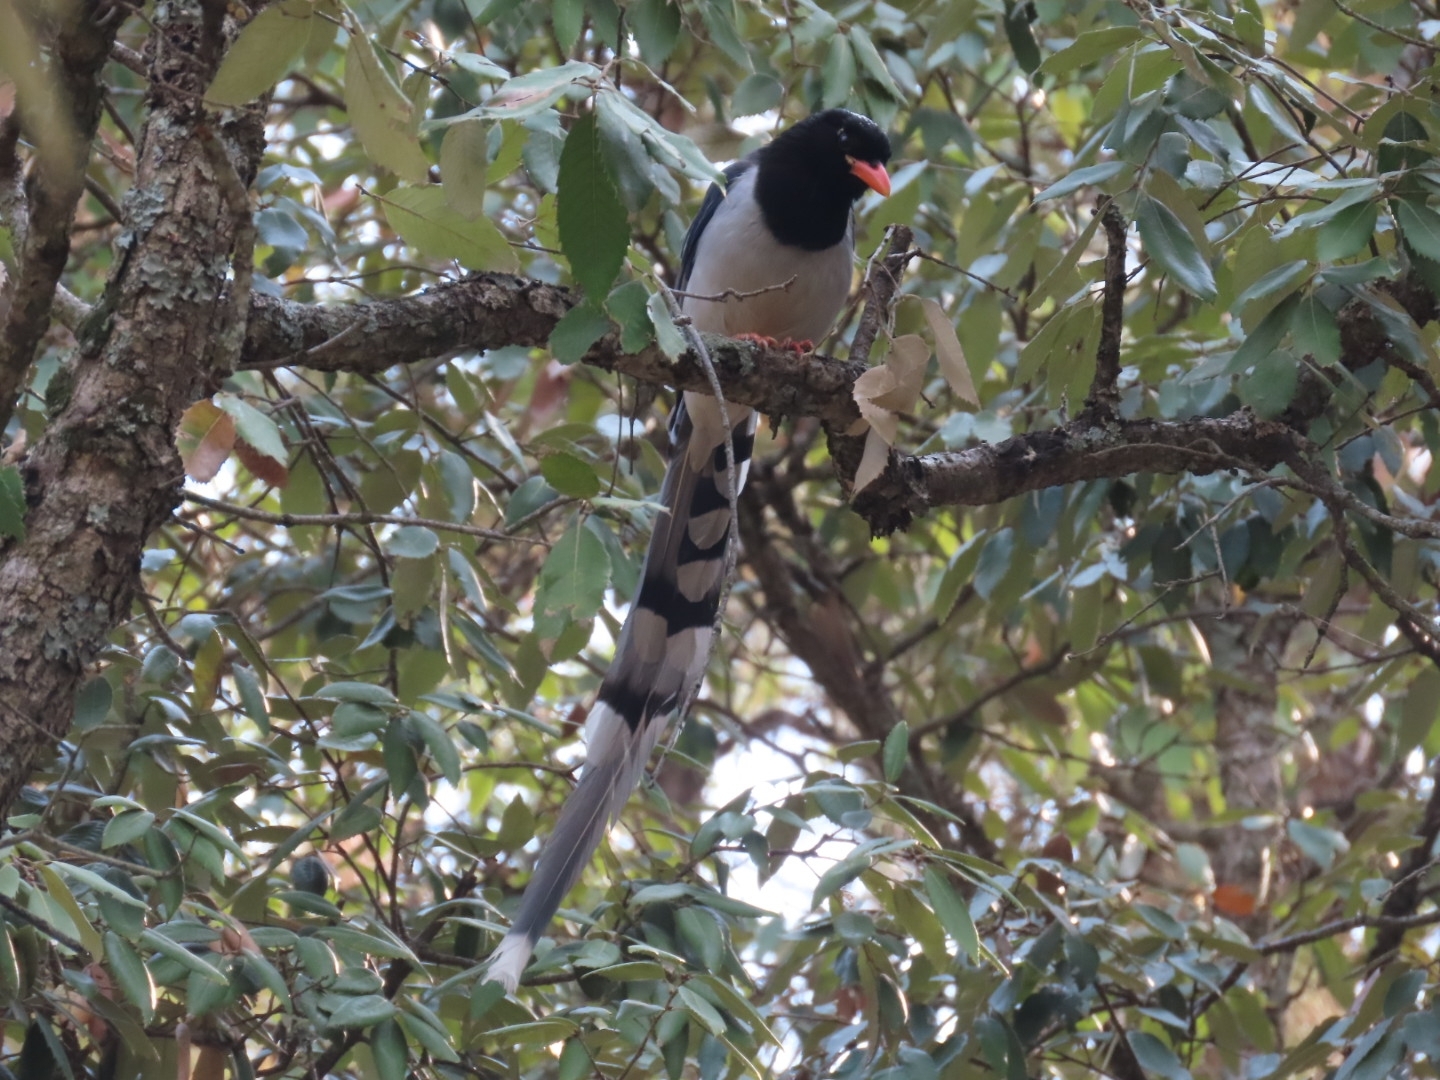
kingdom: Animalia
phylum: Chordata
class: Aves
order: Passeriformes
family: Corvidae
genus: Urocissa
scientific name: Urocissa erythroryncha
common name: Red-billed blue magpie
